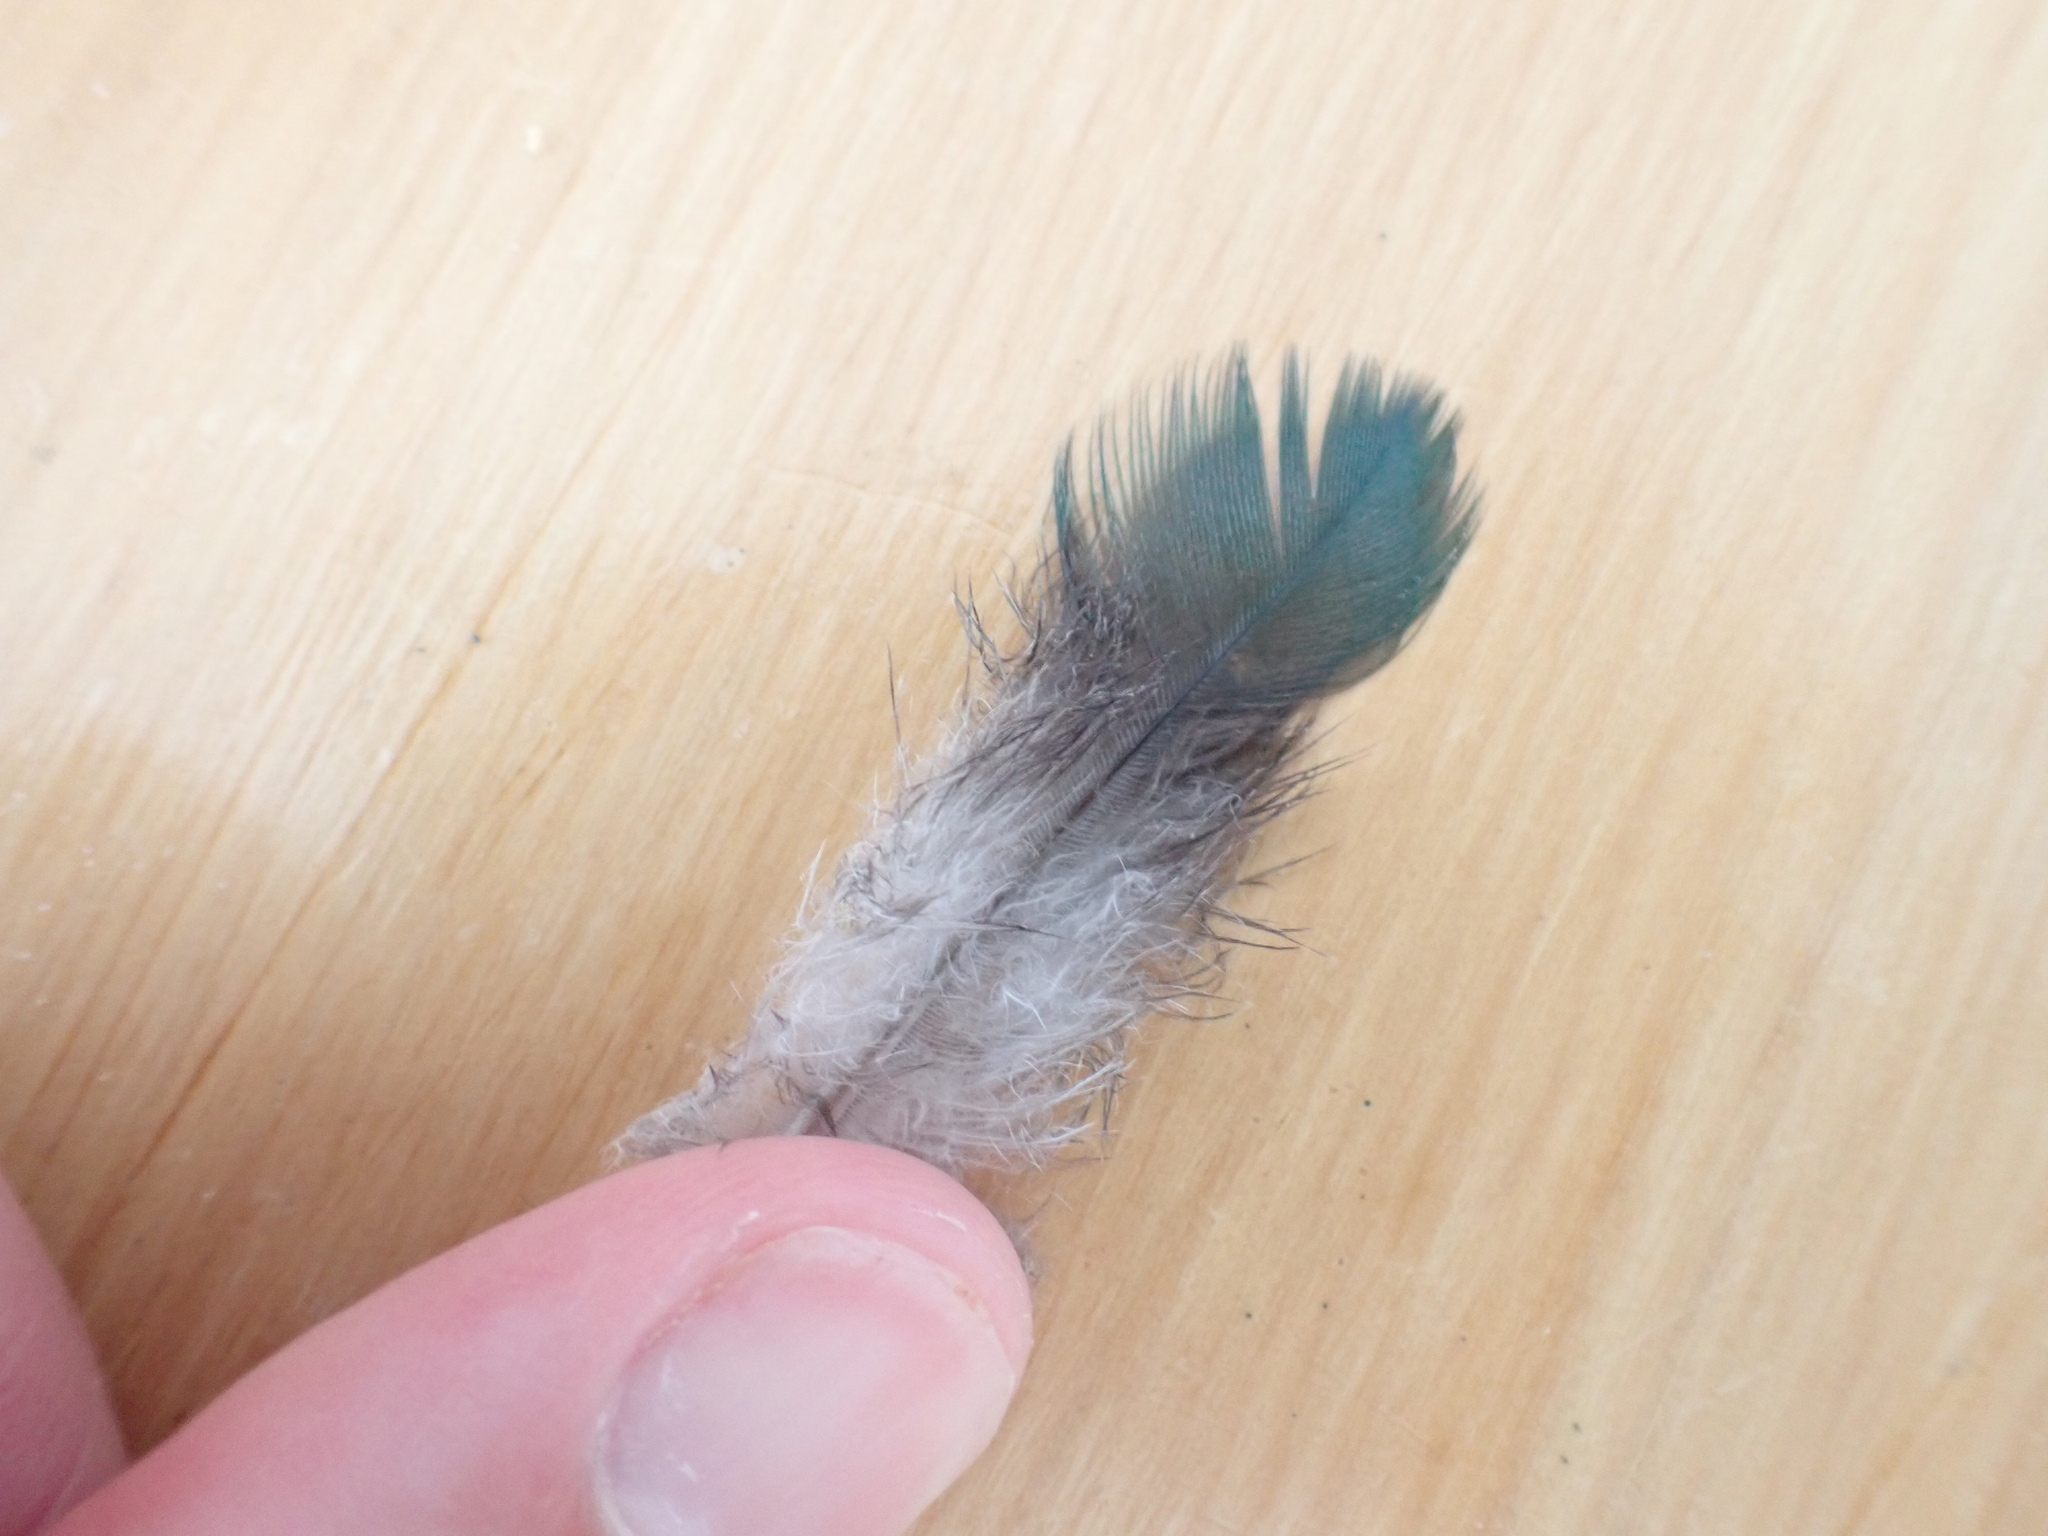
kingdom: Animalia
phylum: Chordata
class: Aves
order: Columbiformes
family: Columbidae
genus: Hemiphaga
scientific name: Hemiphaga novaeseelandiae
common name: New zealand pigeon
